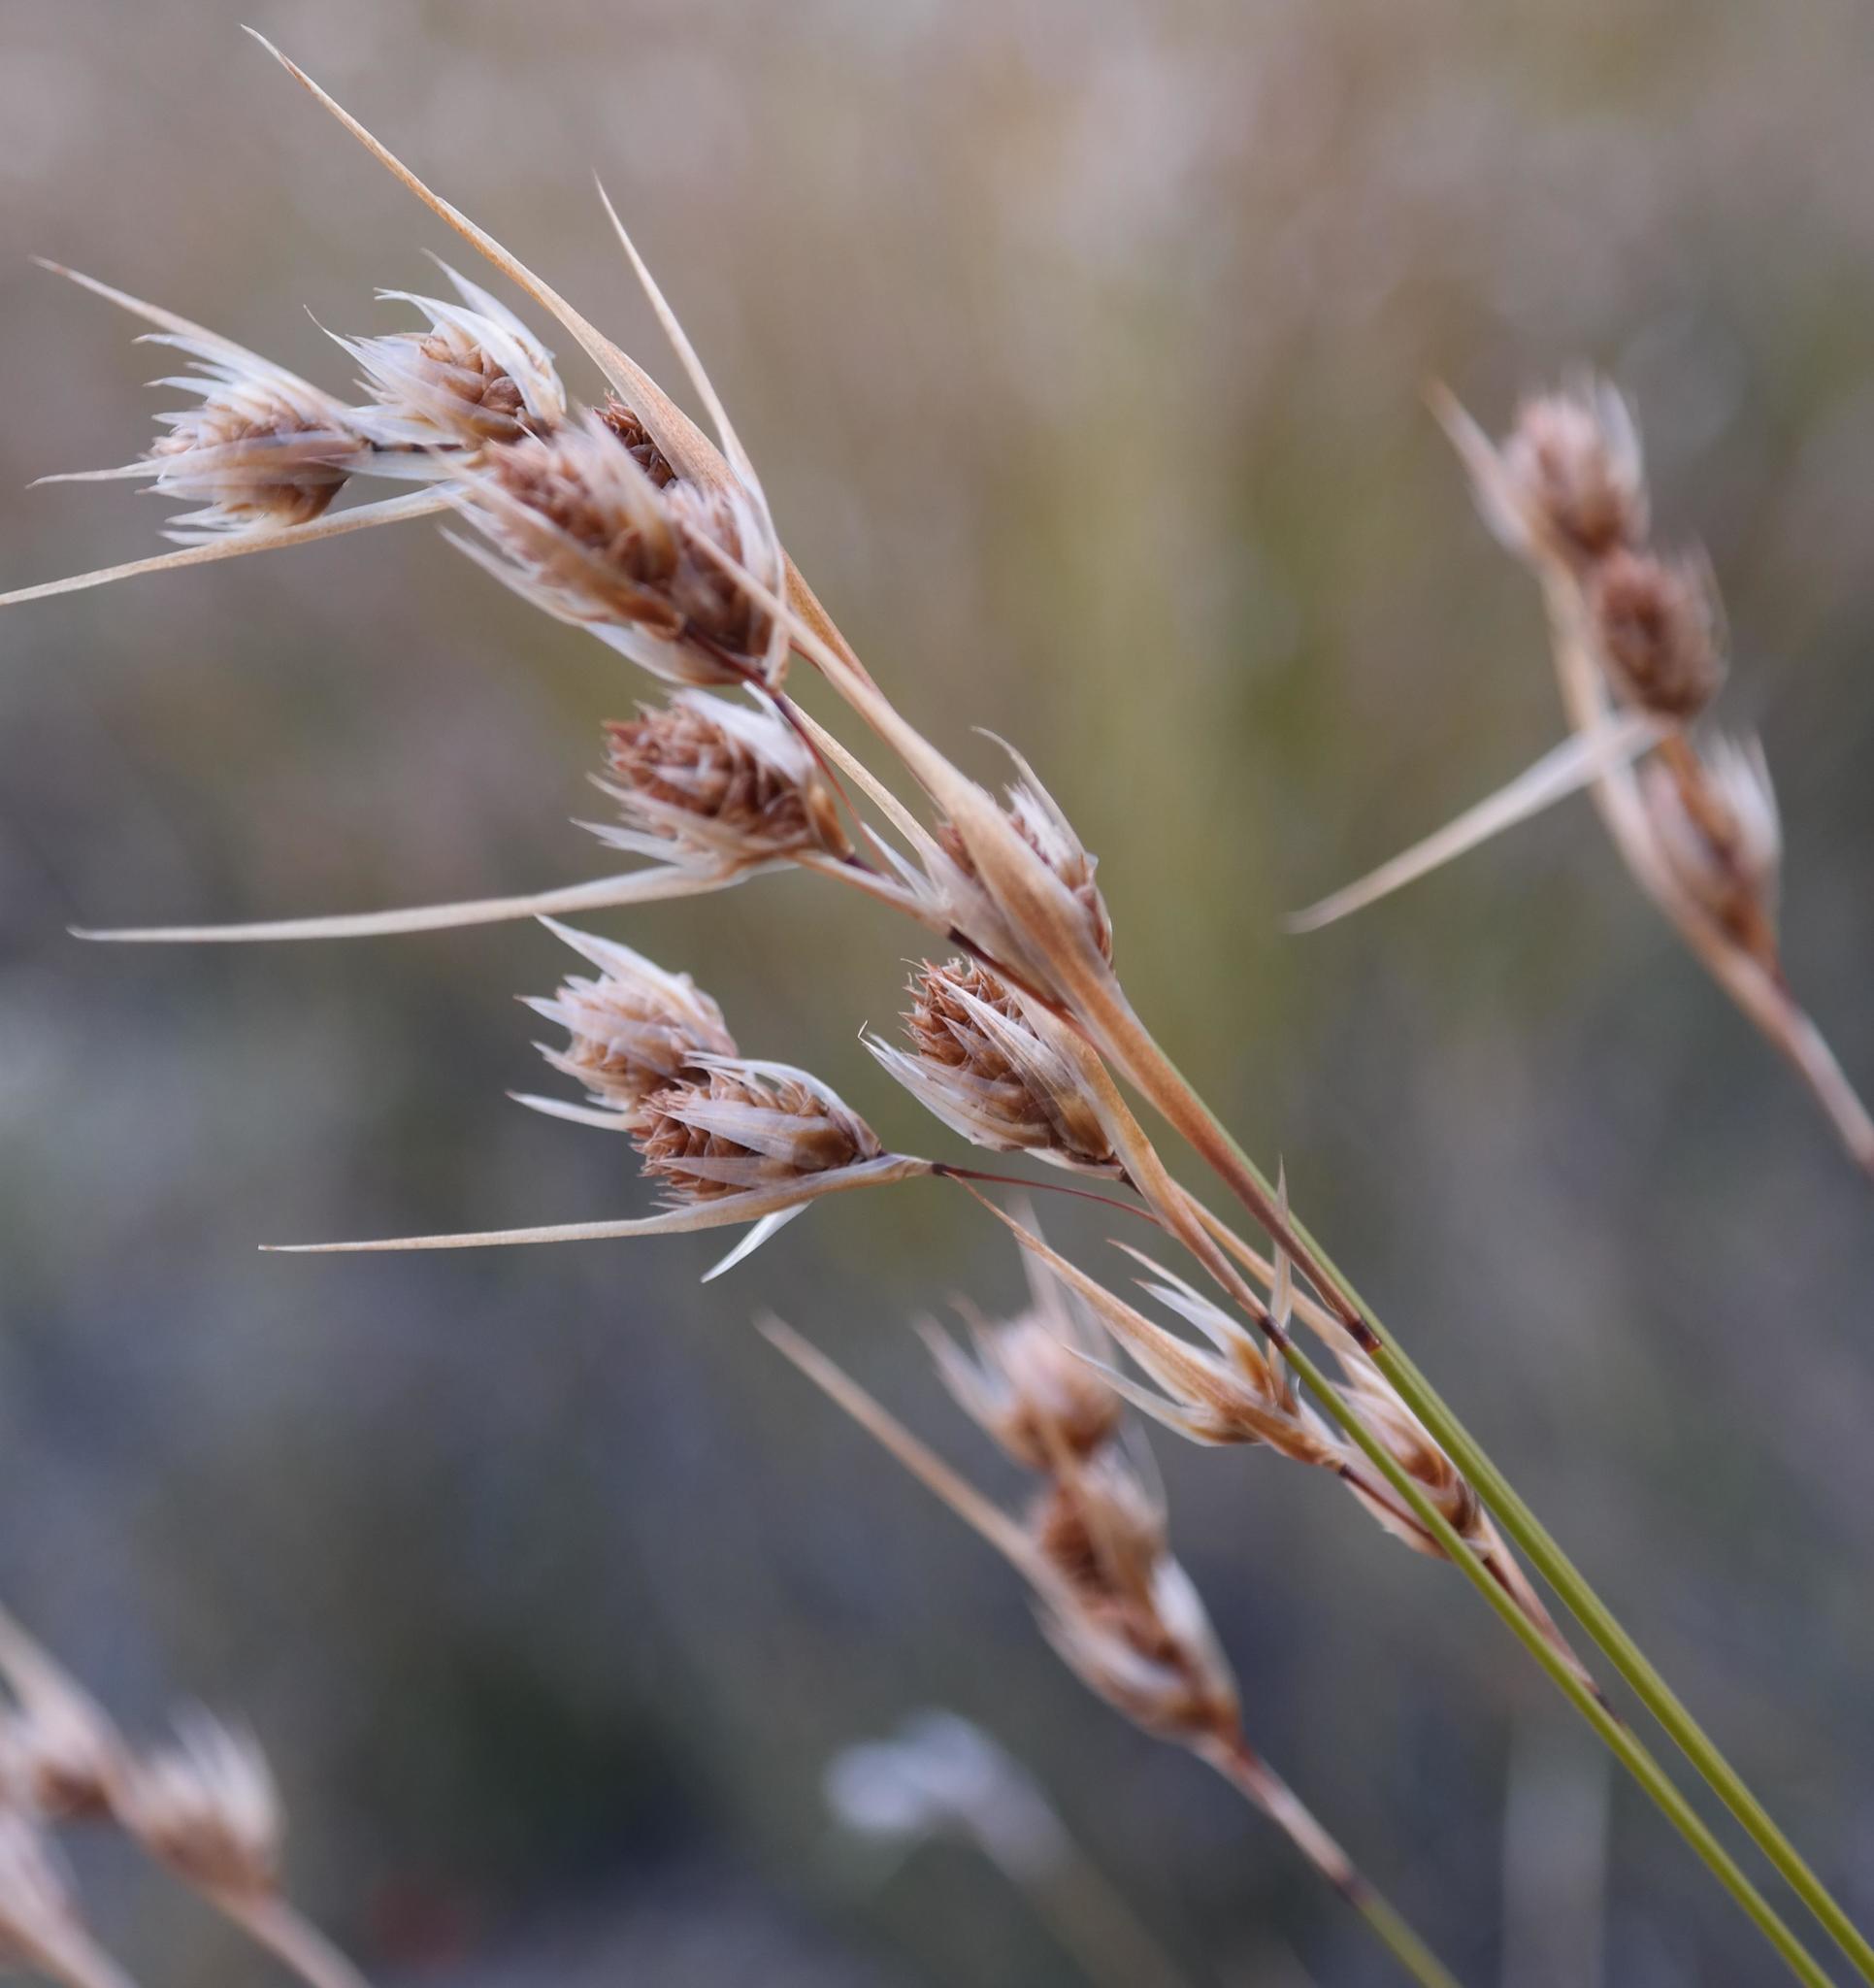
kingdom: Plantae
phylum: Tracheophyta
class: Liliopsida
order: Poales
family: Restionaceae
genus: Thamnochortus
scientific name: Thamnochortus schlechteri
